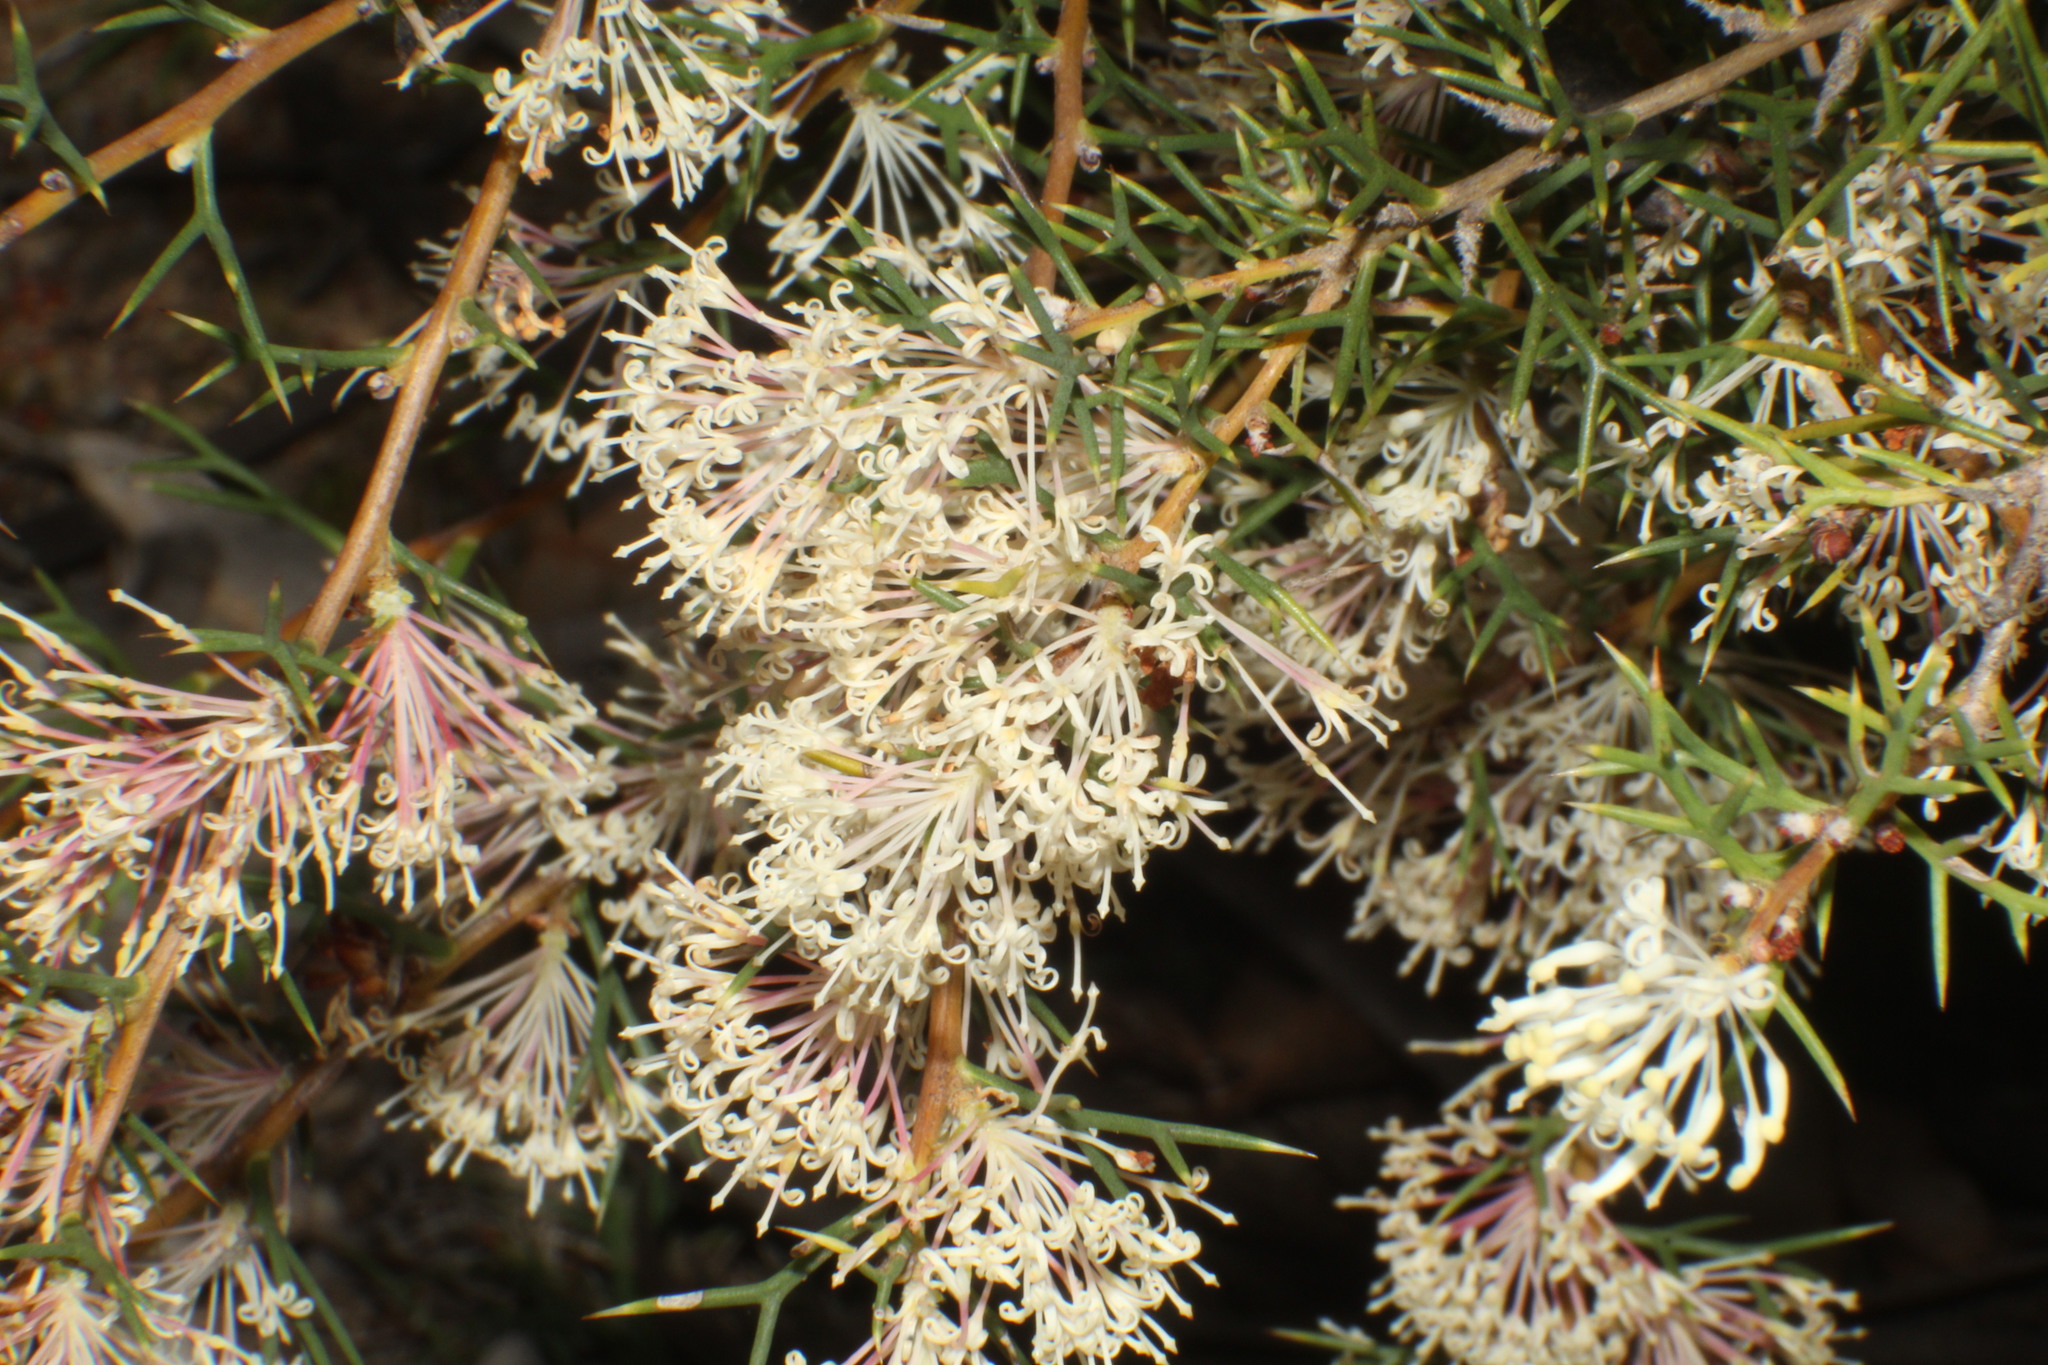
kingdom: Plantae
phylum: Tracheophyta
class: Magnoliopsida
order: Proteales
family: Proteaceae
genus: Hakea
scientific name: Hakea lissocarpha
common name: Honey bush
